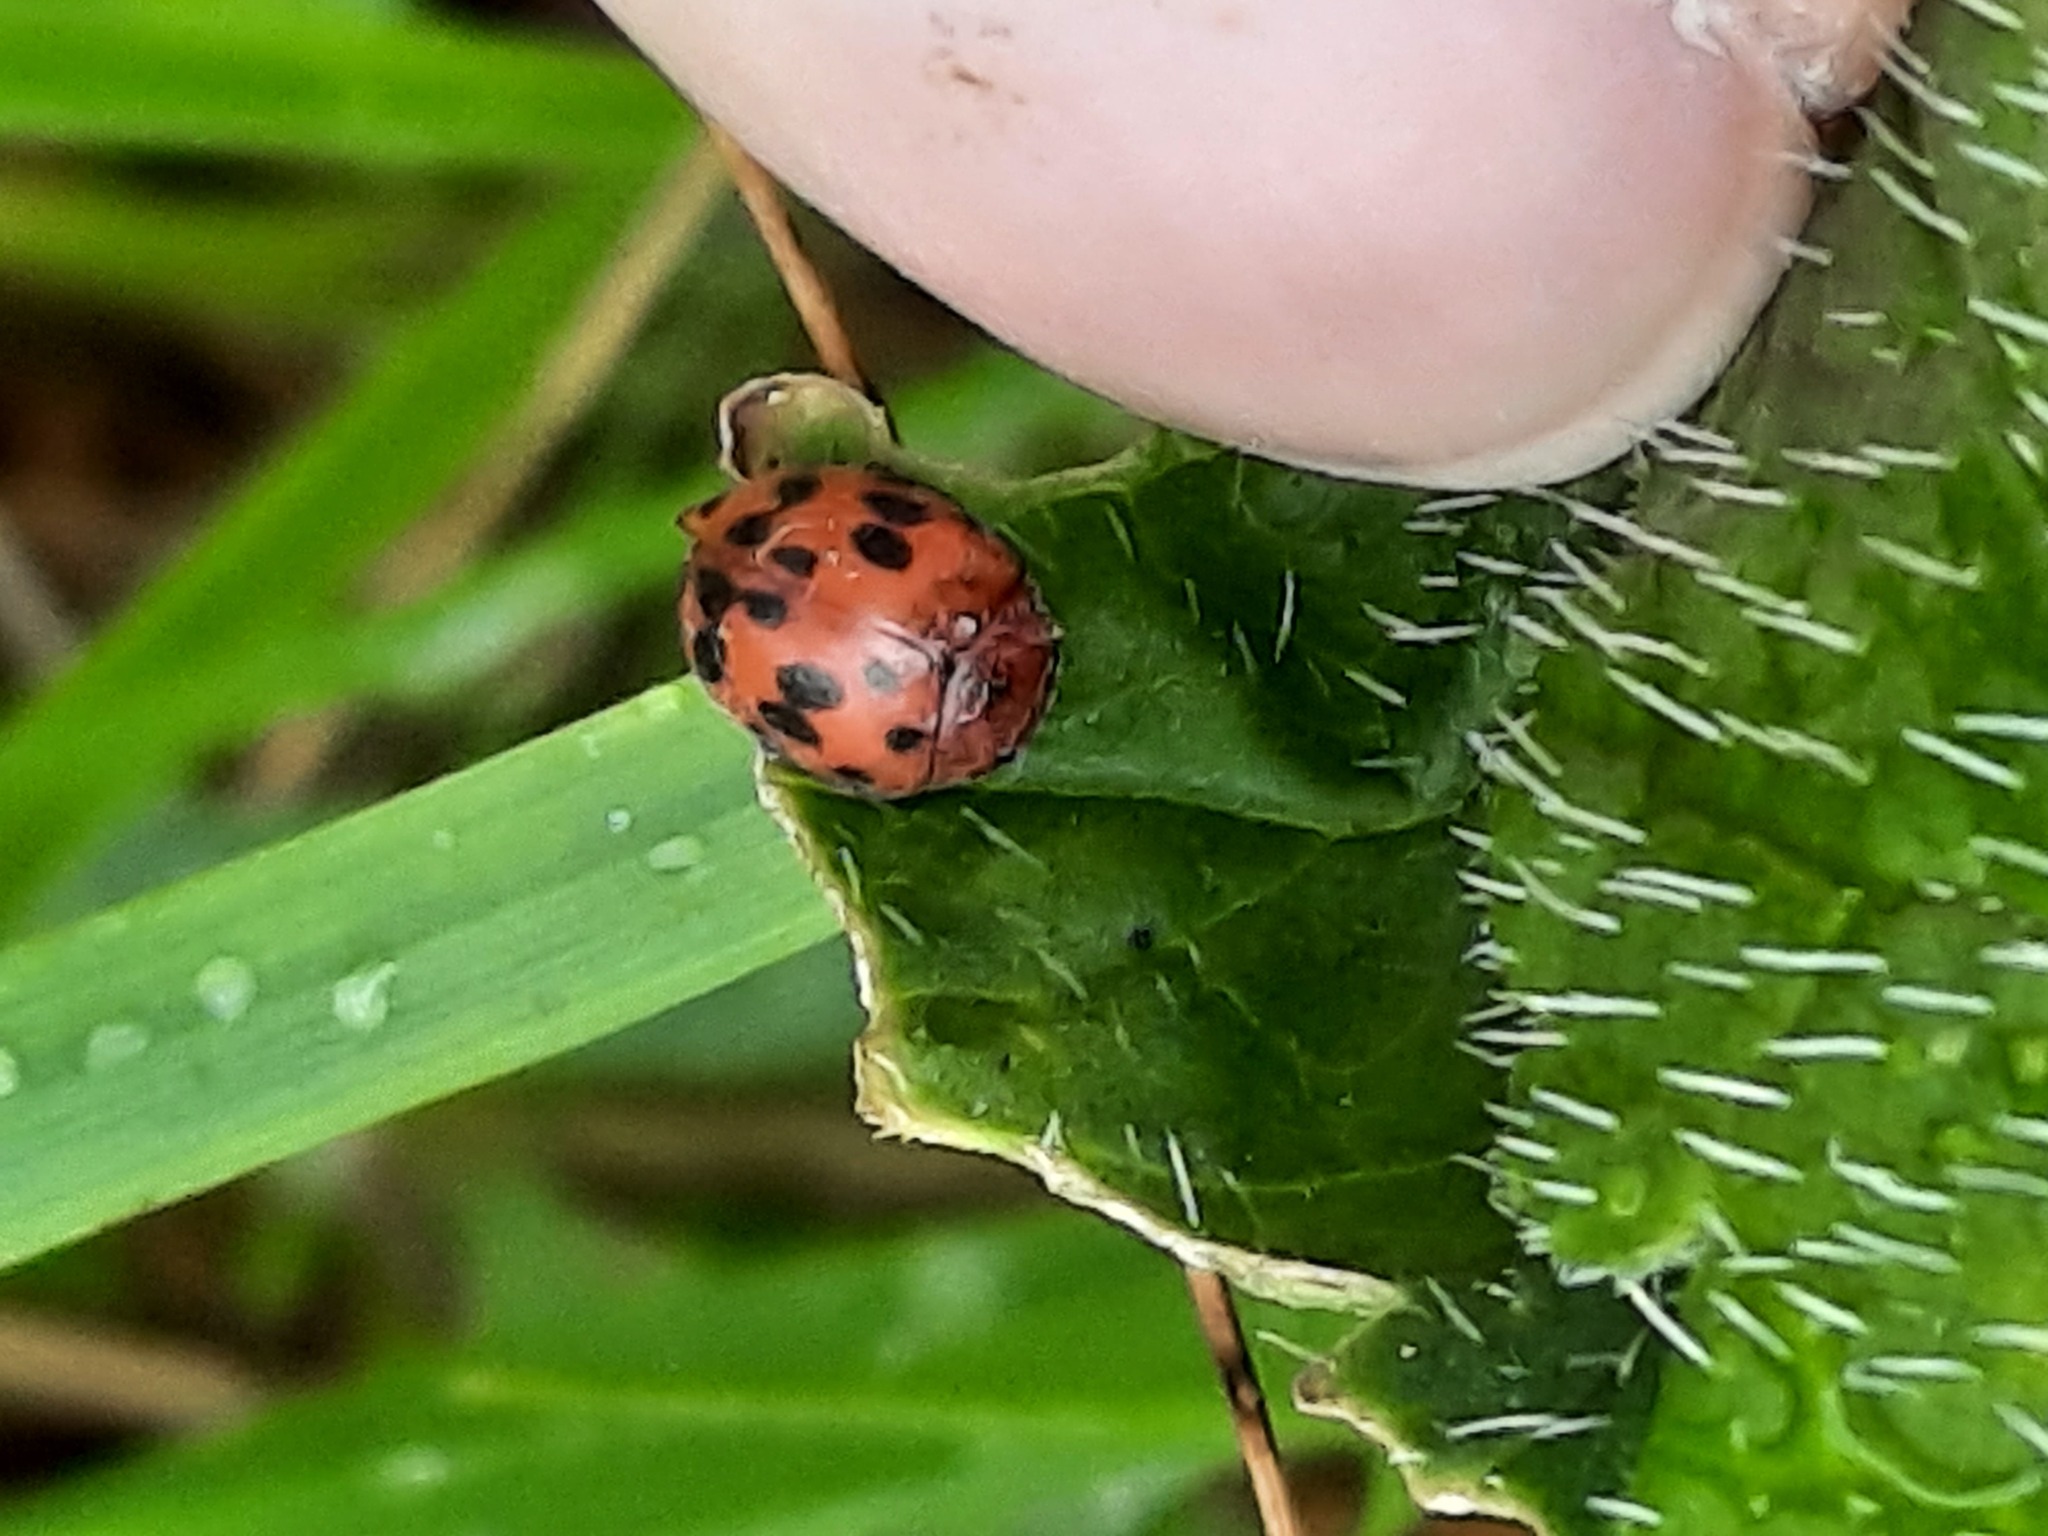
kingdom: Animalia
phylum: Arthropoda
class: Insecta
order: Coleoptera
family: Coccinellidae
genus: Subcoccinella
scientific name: Subcoccinella vigintiquatuorpunctata
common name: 24-spot ladybird
